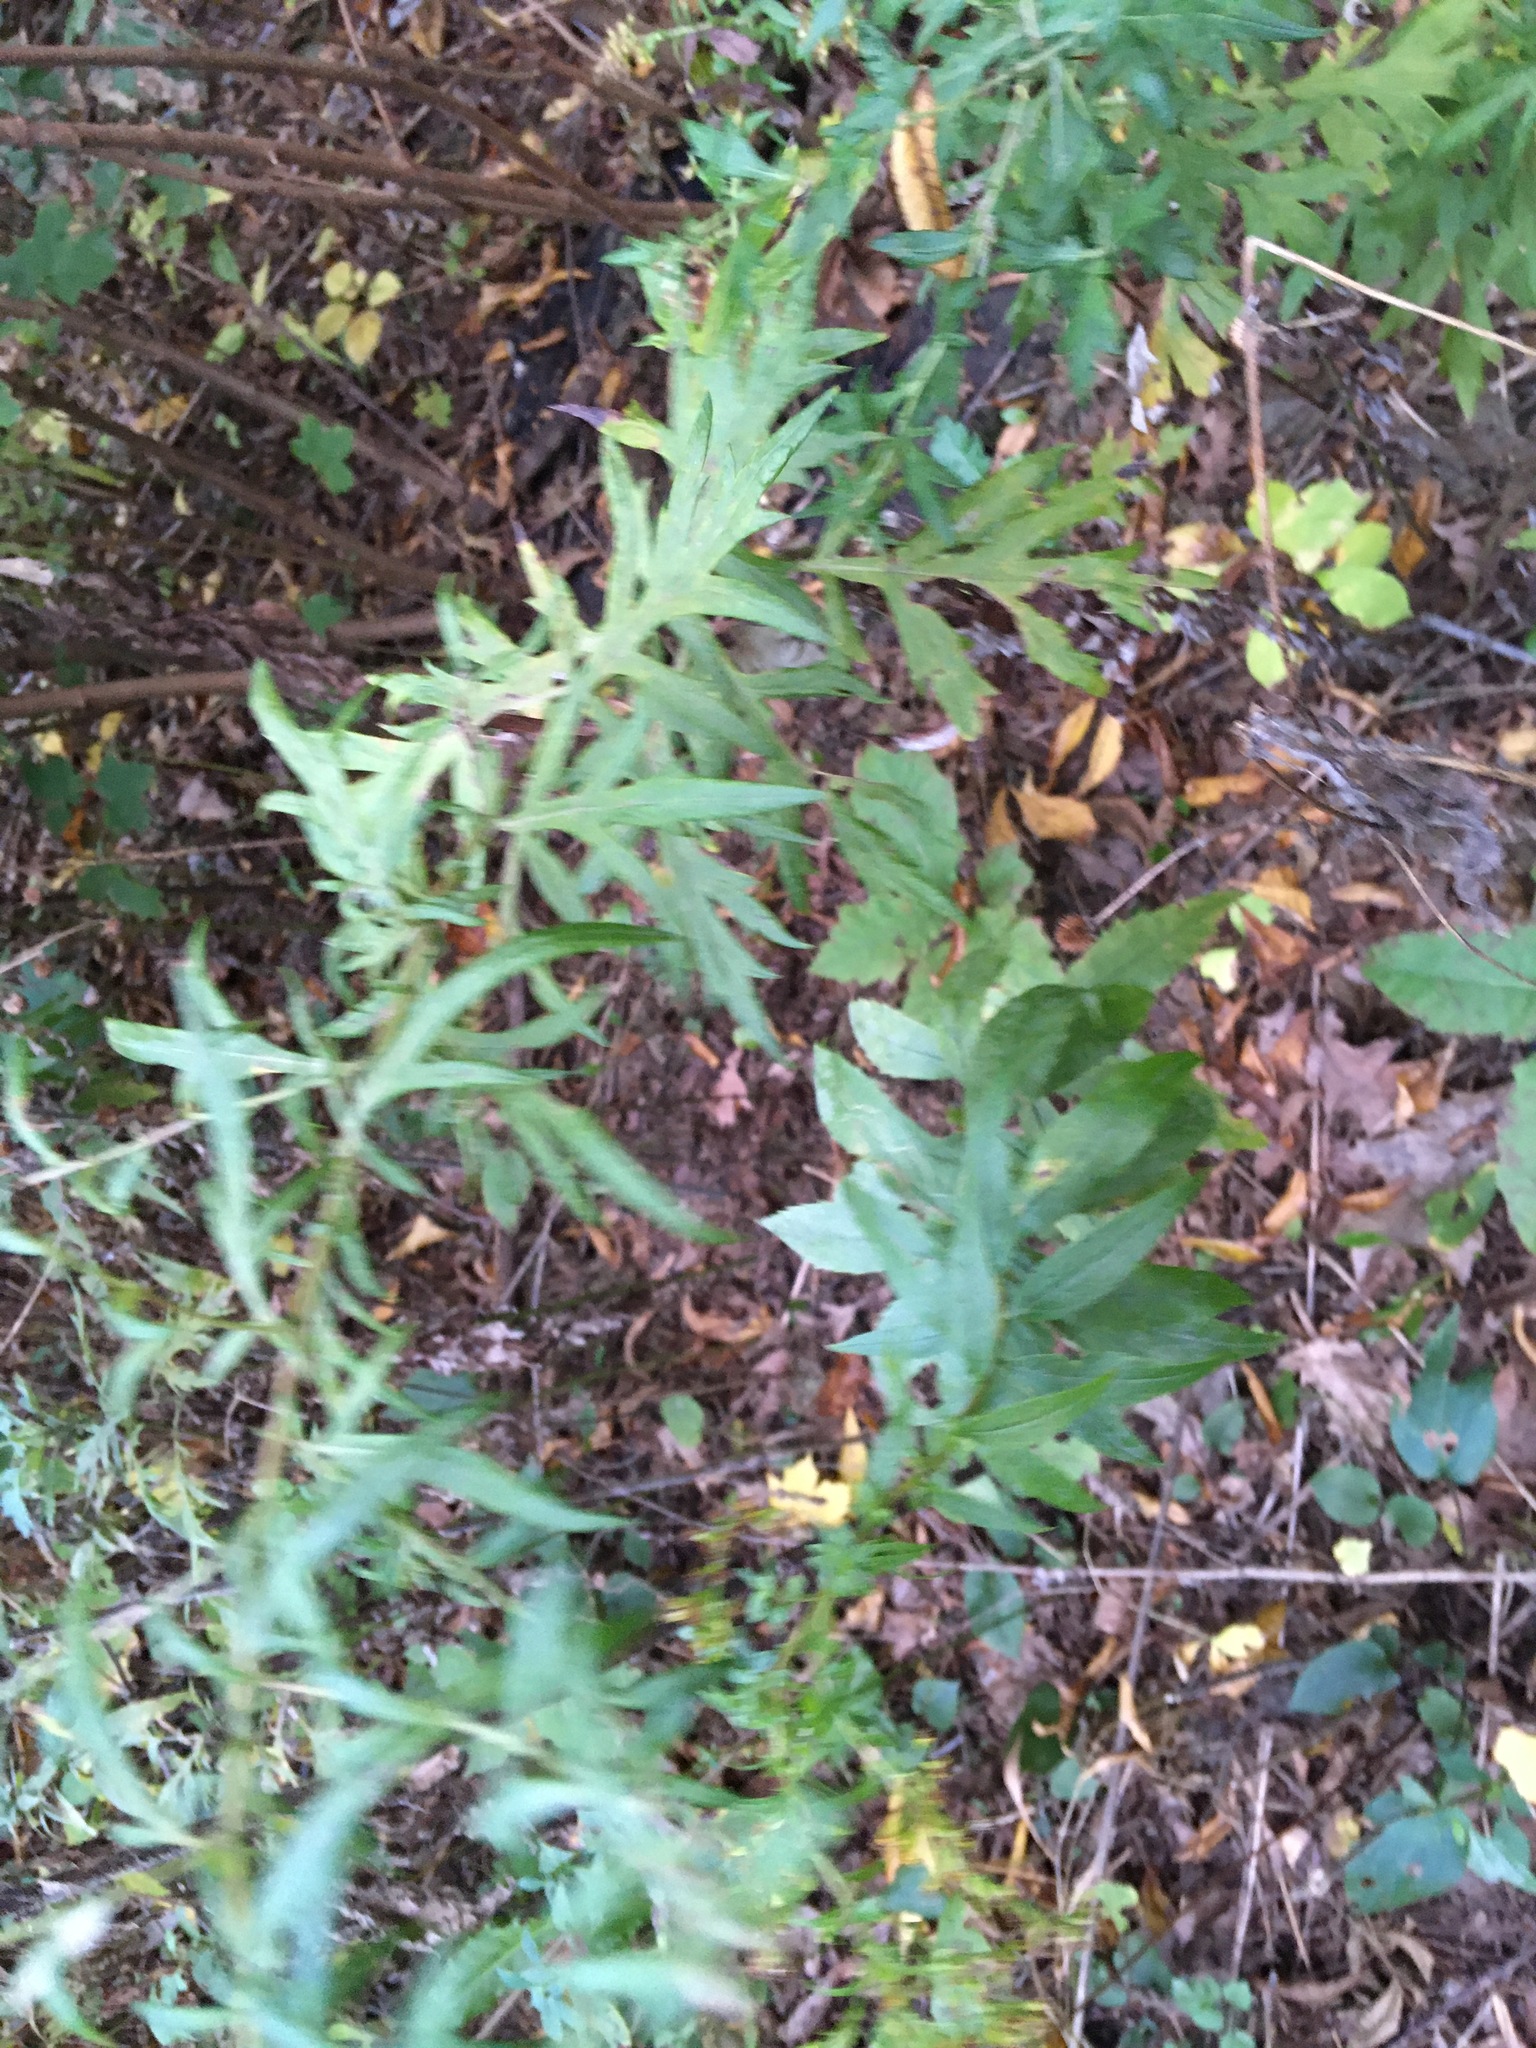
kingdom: Plantae
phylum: Tracheophyta
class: Magnoliopsida
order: Asterales
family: Asteraceae
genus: Artemisia
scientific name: Artemisia vulgaris
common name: Mugwort
